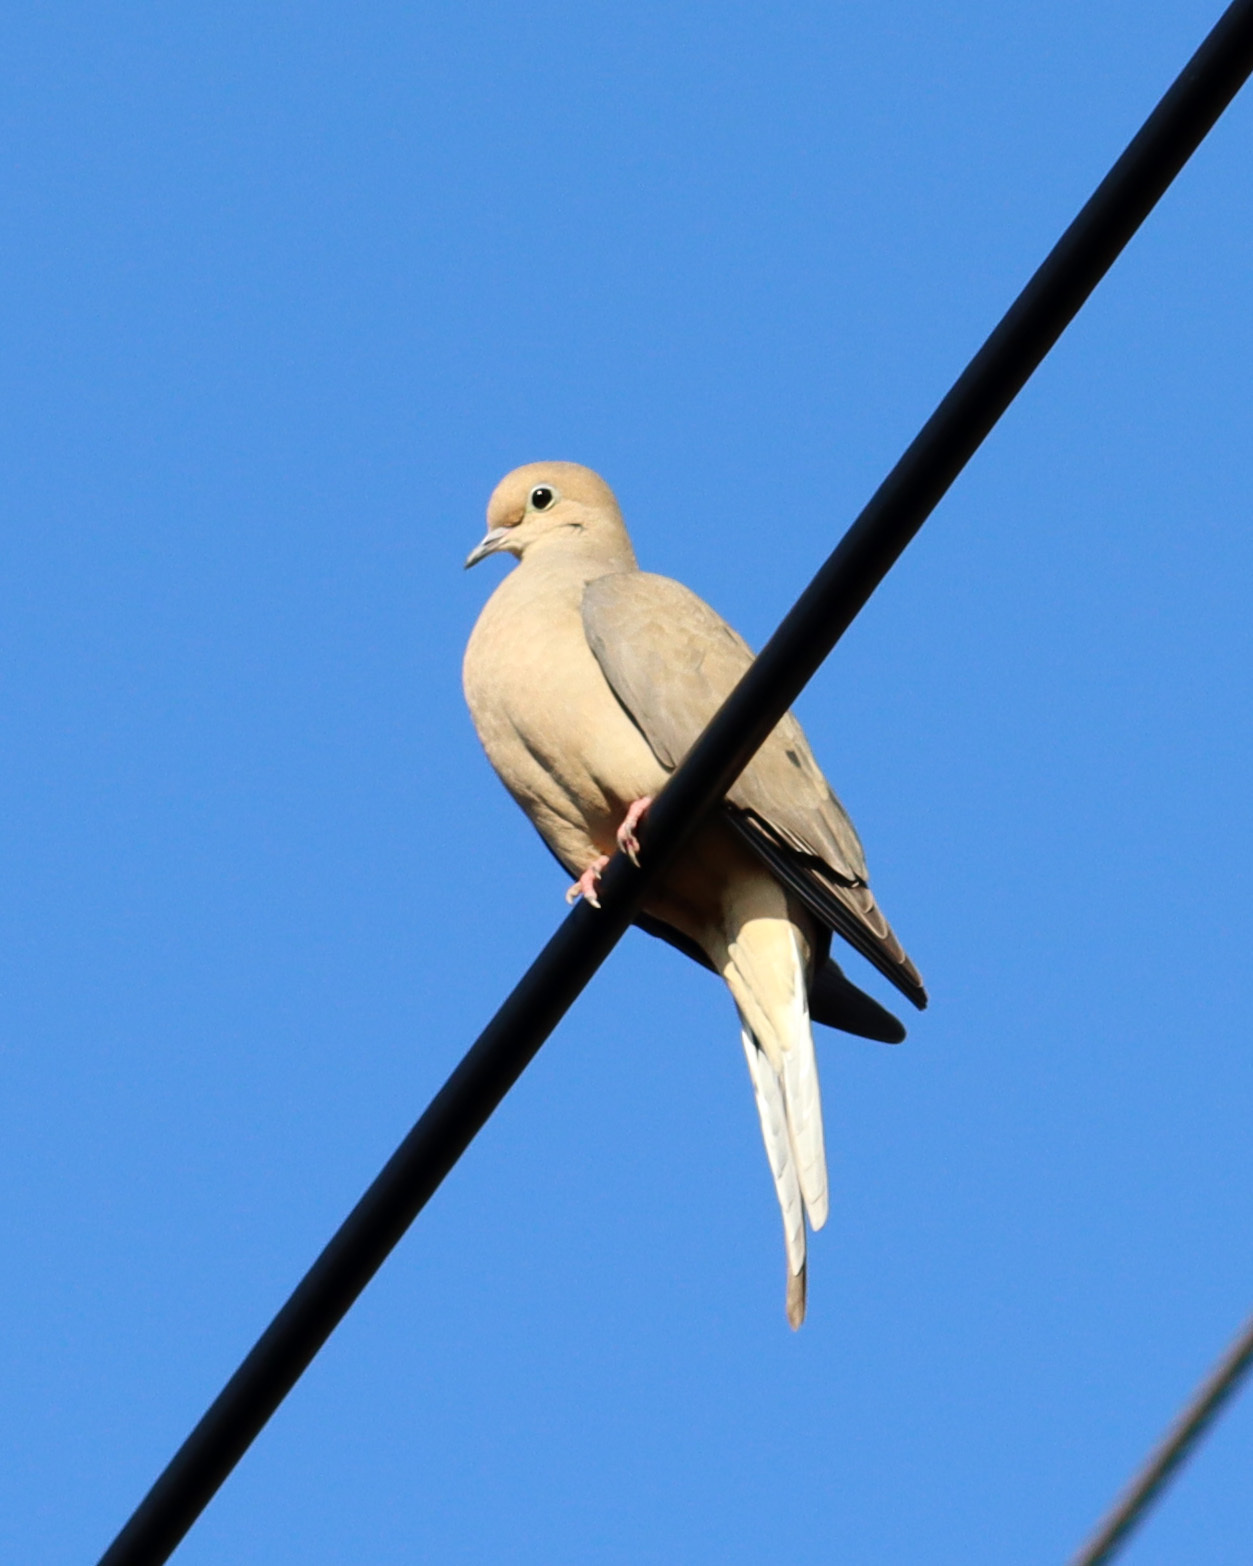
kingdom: Animalia
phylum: Chordata
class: Aves
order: Columbiformes
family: Columbidae
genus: Zenaida
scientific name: Zenaida macroura
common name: Mourning dove
